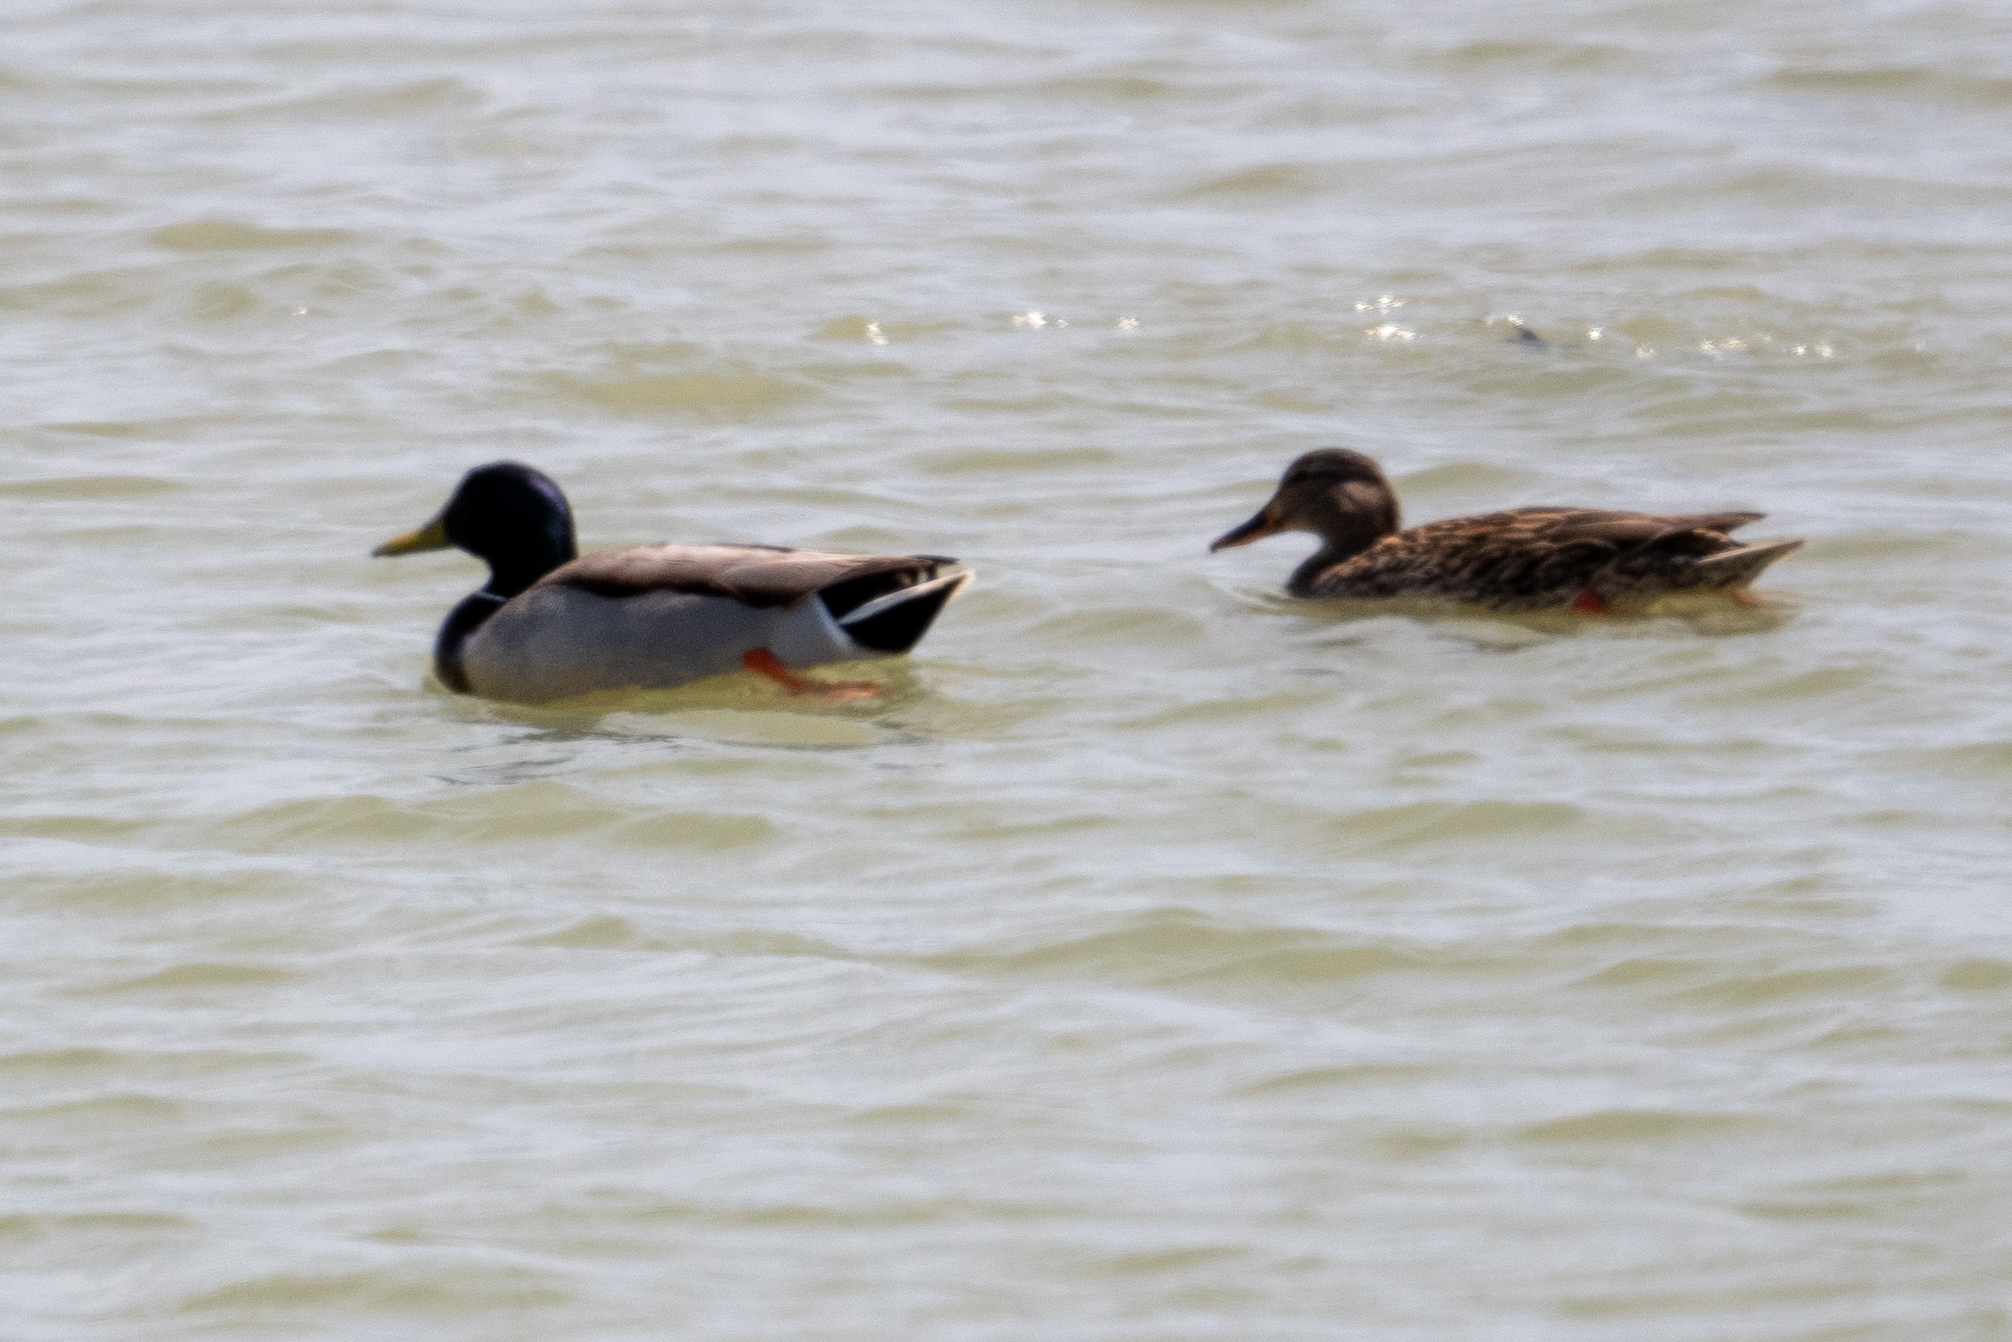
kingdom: Animalia
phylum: Chordata
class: Aves
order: Anseriformes
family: Anatidae
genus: Anas
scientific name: Anas platyrhynchos
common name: Mallard
